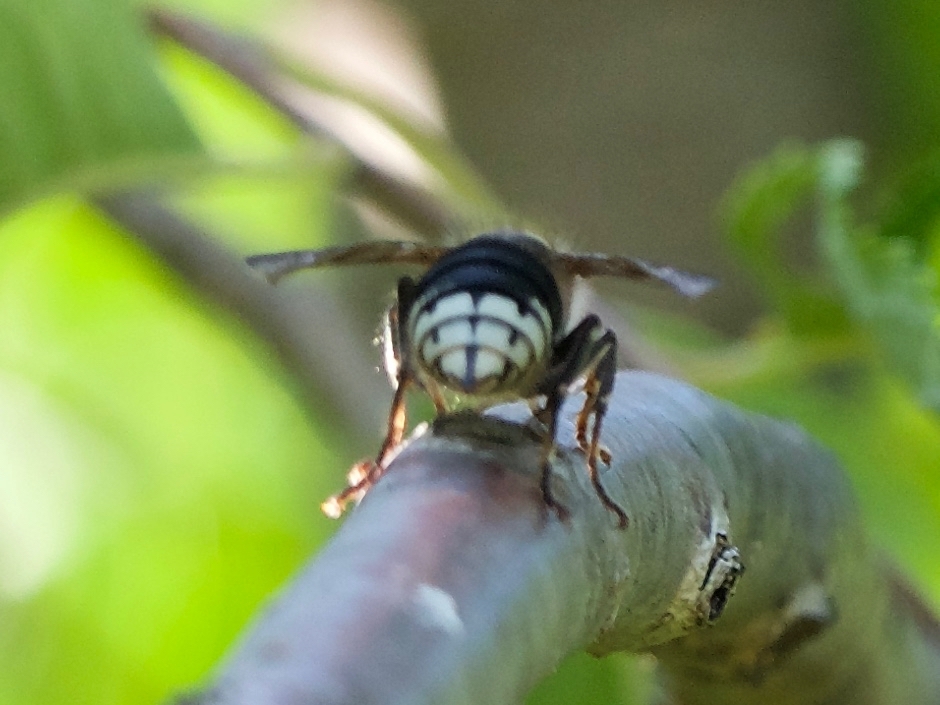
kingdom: Animalia
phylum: Arthropoda
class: Insecta
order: Hymenoptera
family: Vespidae
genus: Dolichovespula
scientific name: Dolichovespula maculata
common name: Bald-faced hornet
